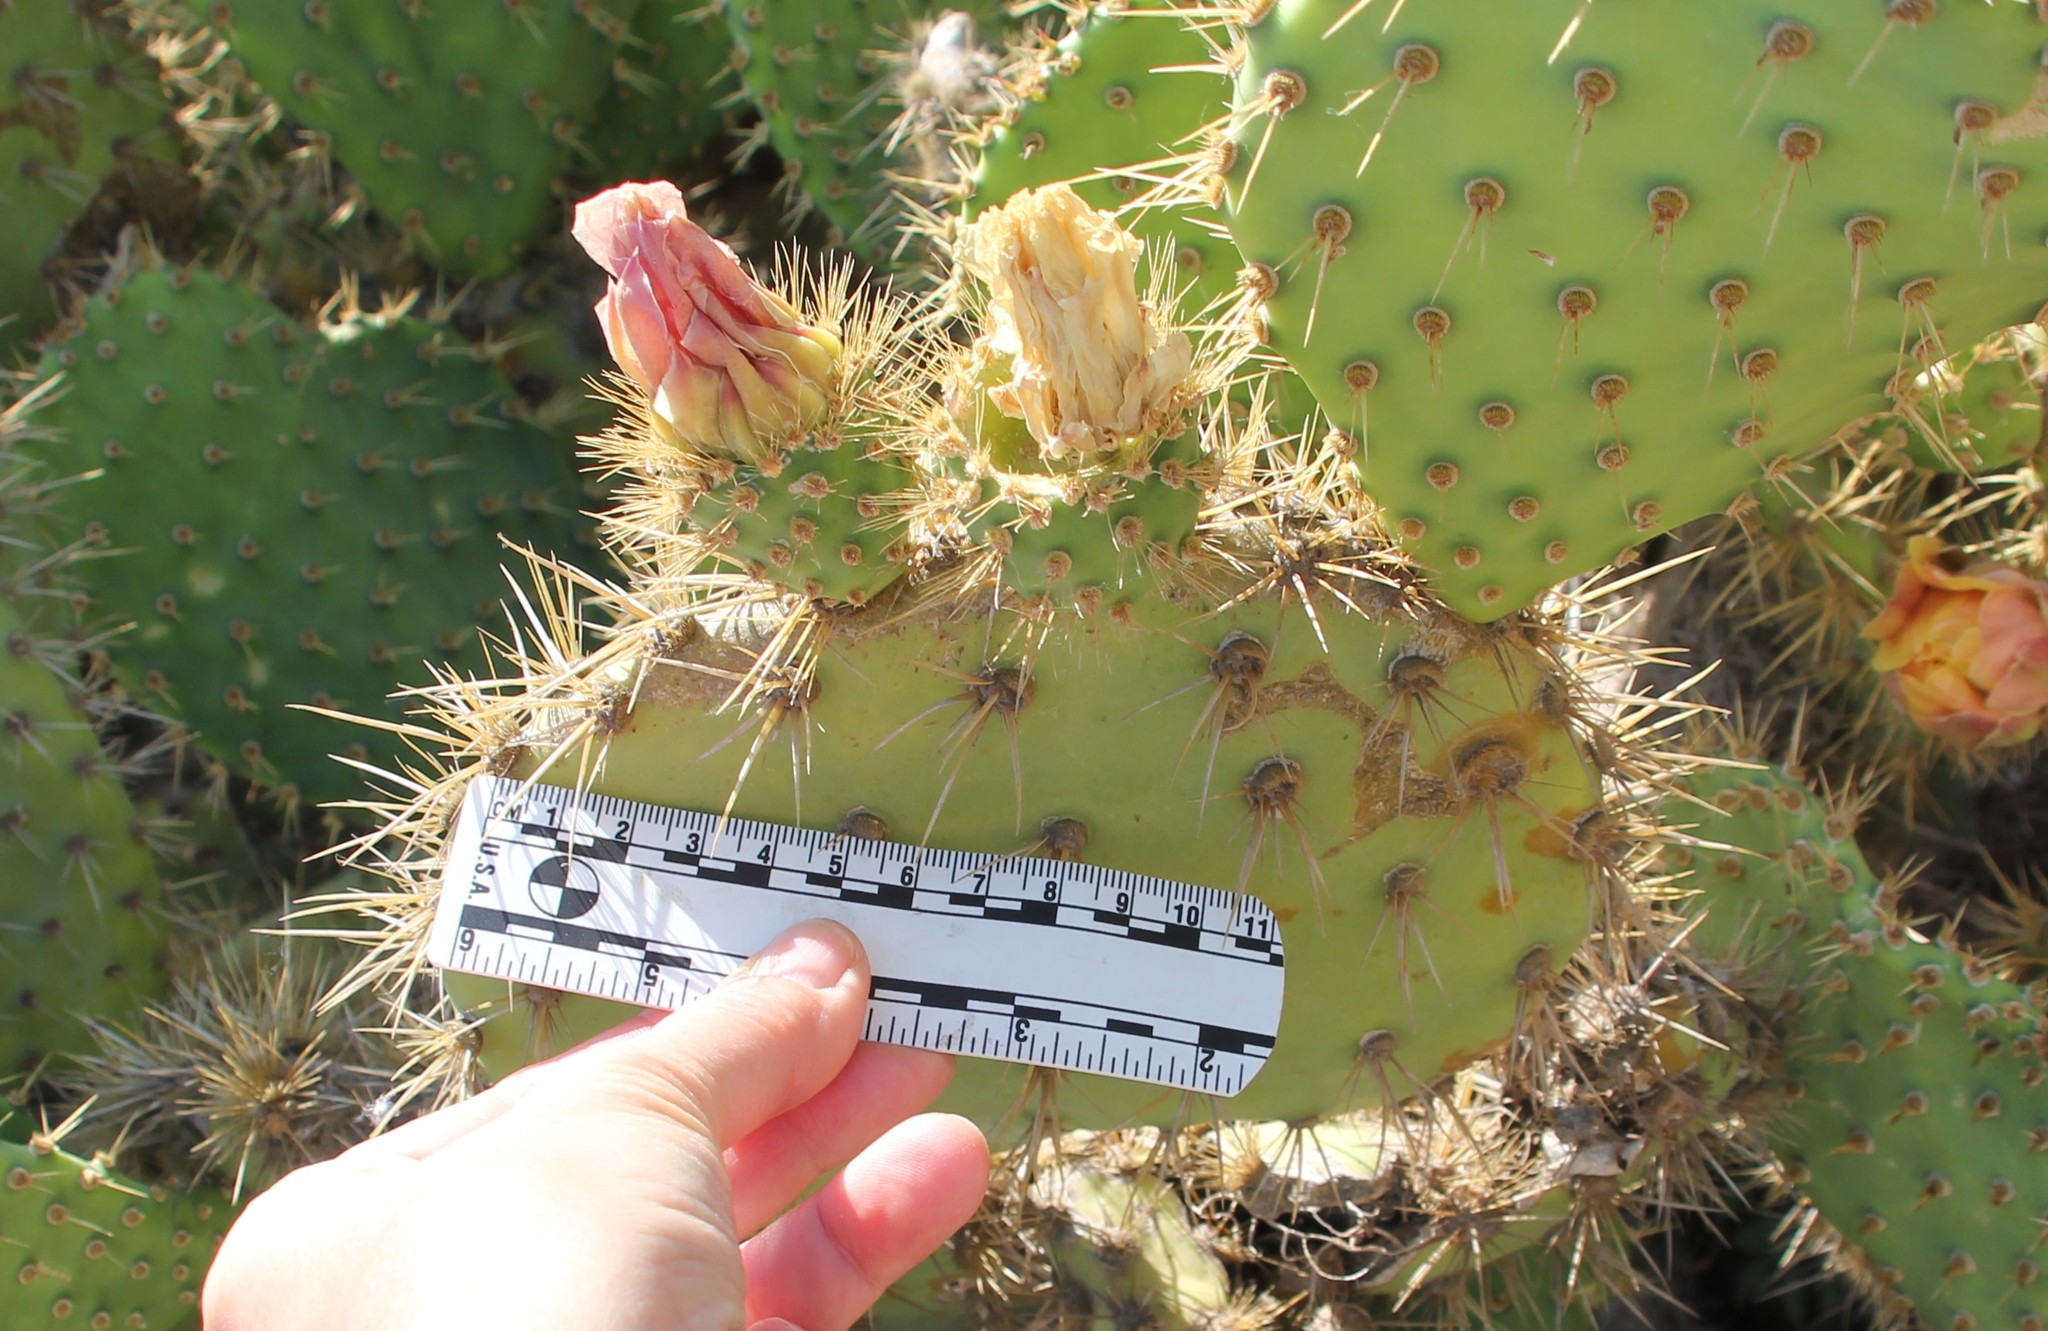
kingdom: Plantae
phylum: Tracheophyta
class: Magnoliopsida
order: Caryophyllales
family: Cactaceae
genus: Opuntia
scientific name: Opuntia oricola
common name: Chaparral prickly-pear
